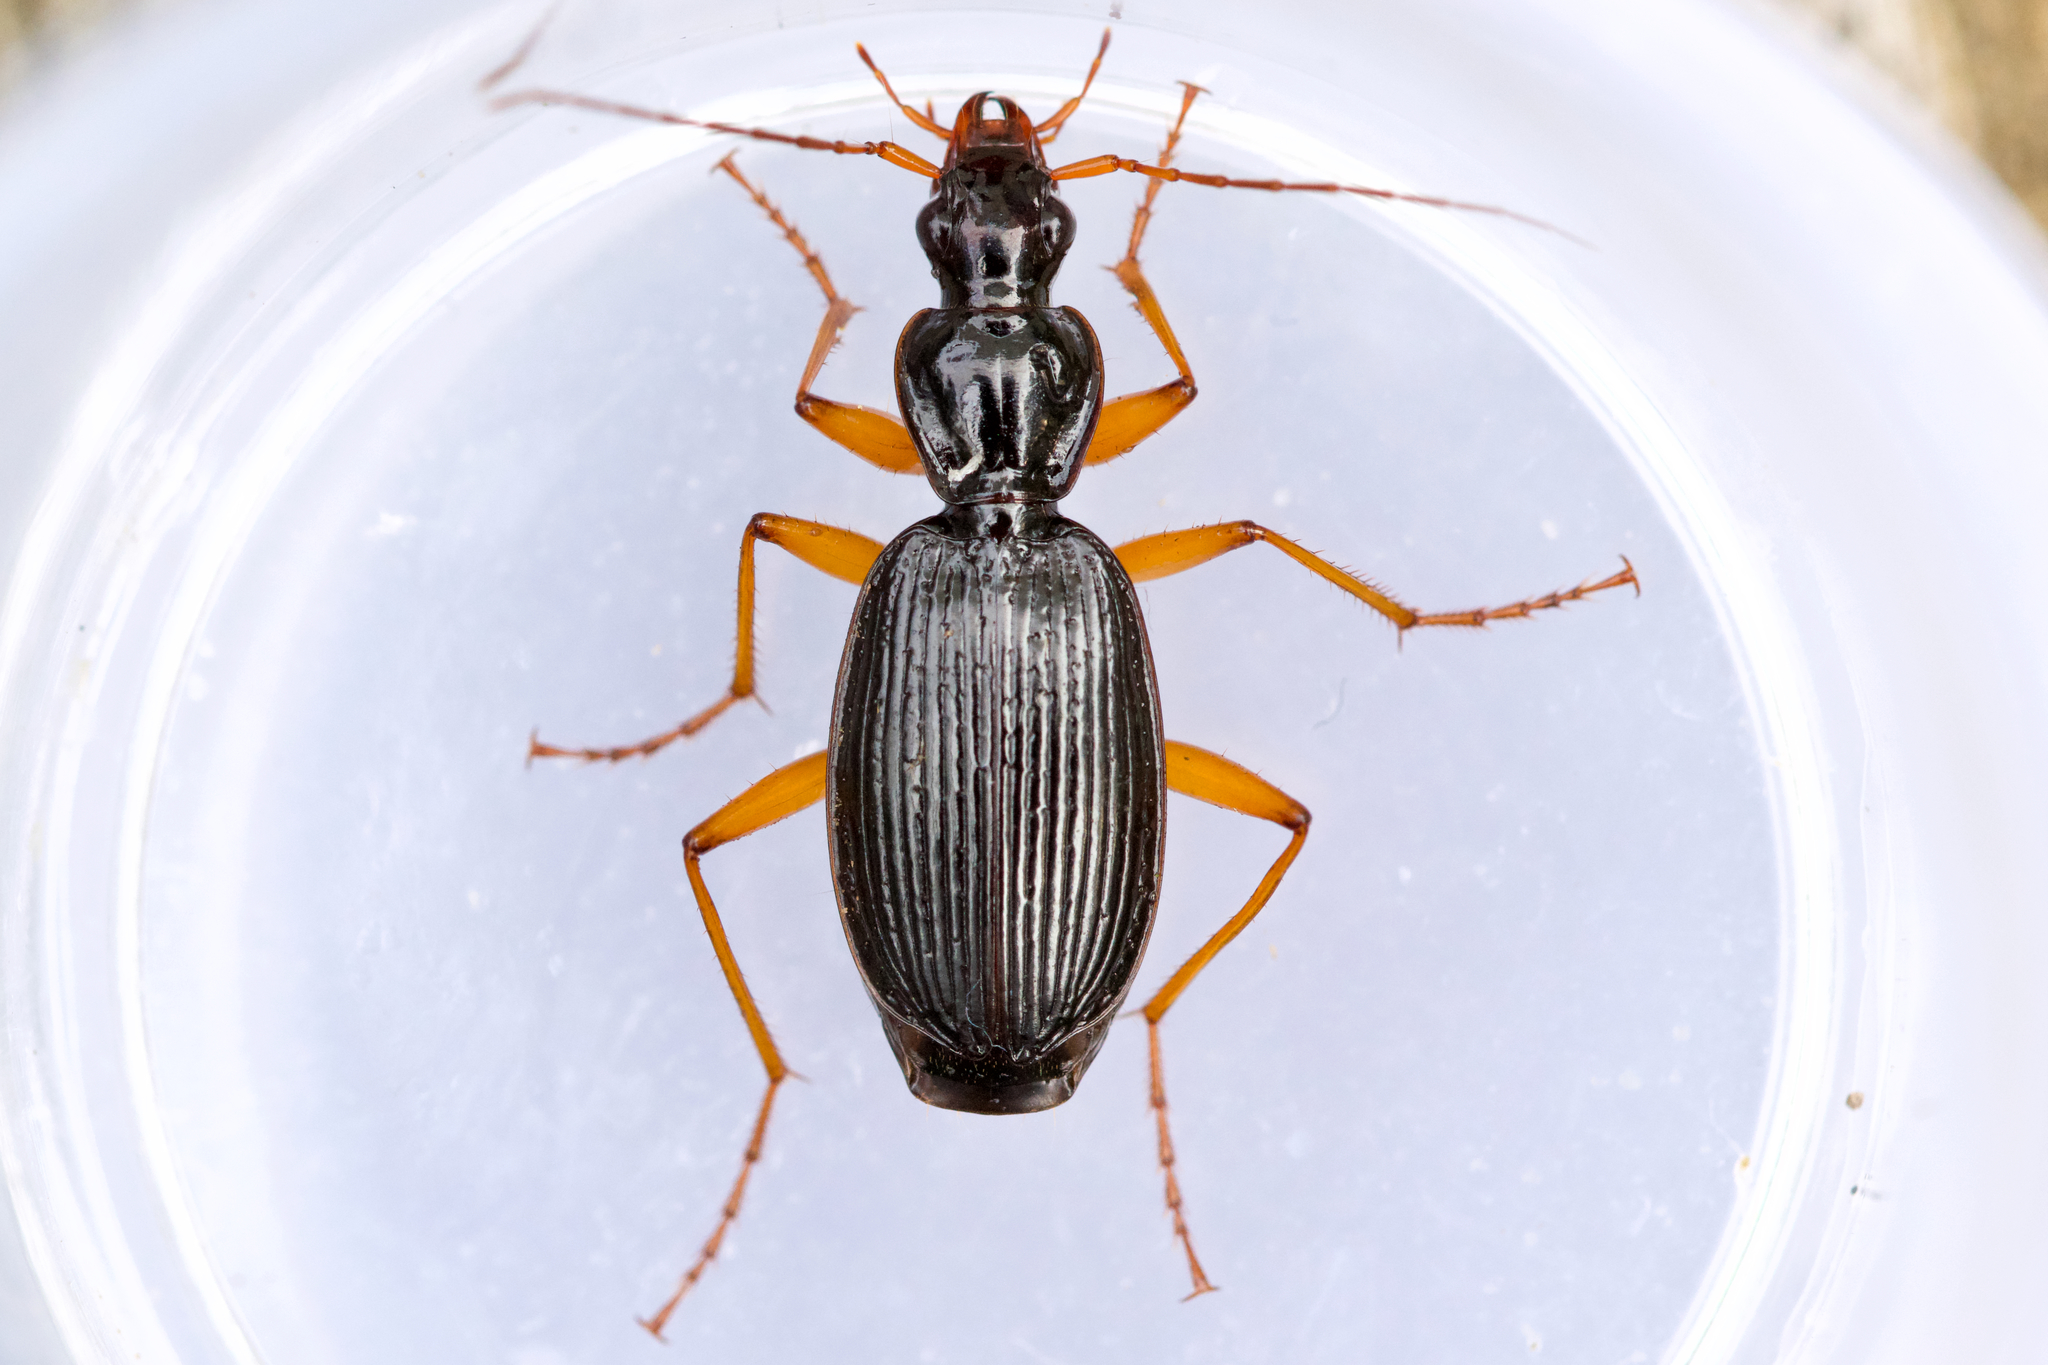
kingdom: Animalia
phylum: Arthropoda
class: Insecta
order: Coleoptera
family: Carabidae
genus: Platynus
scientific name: Platynus hypolithos
